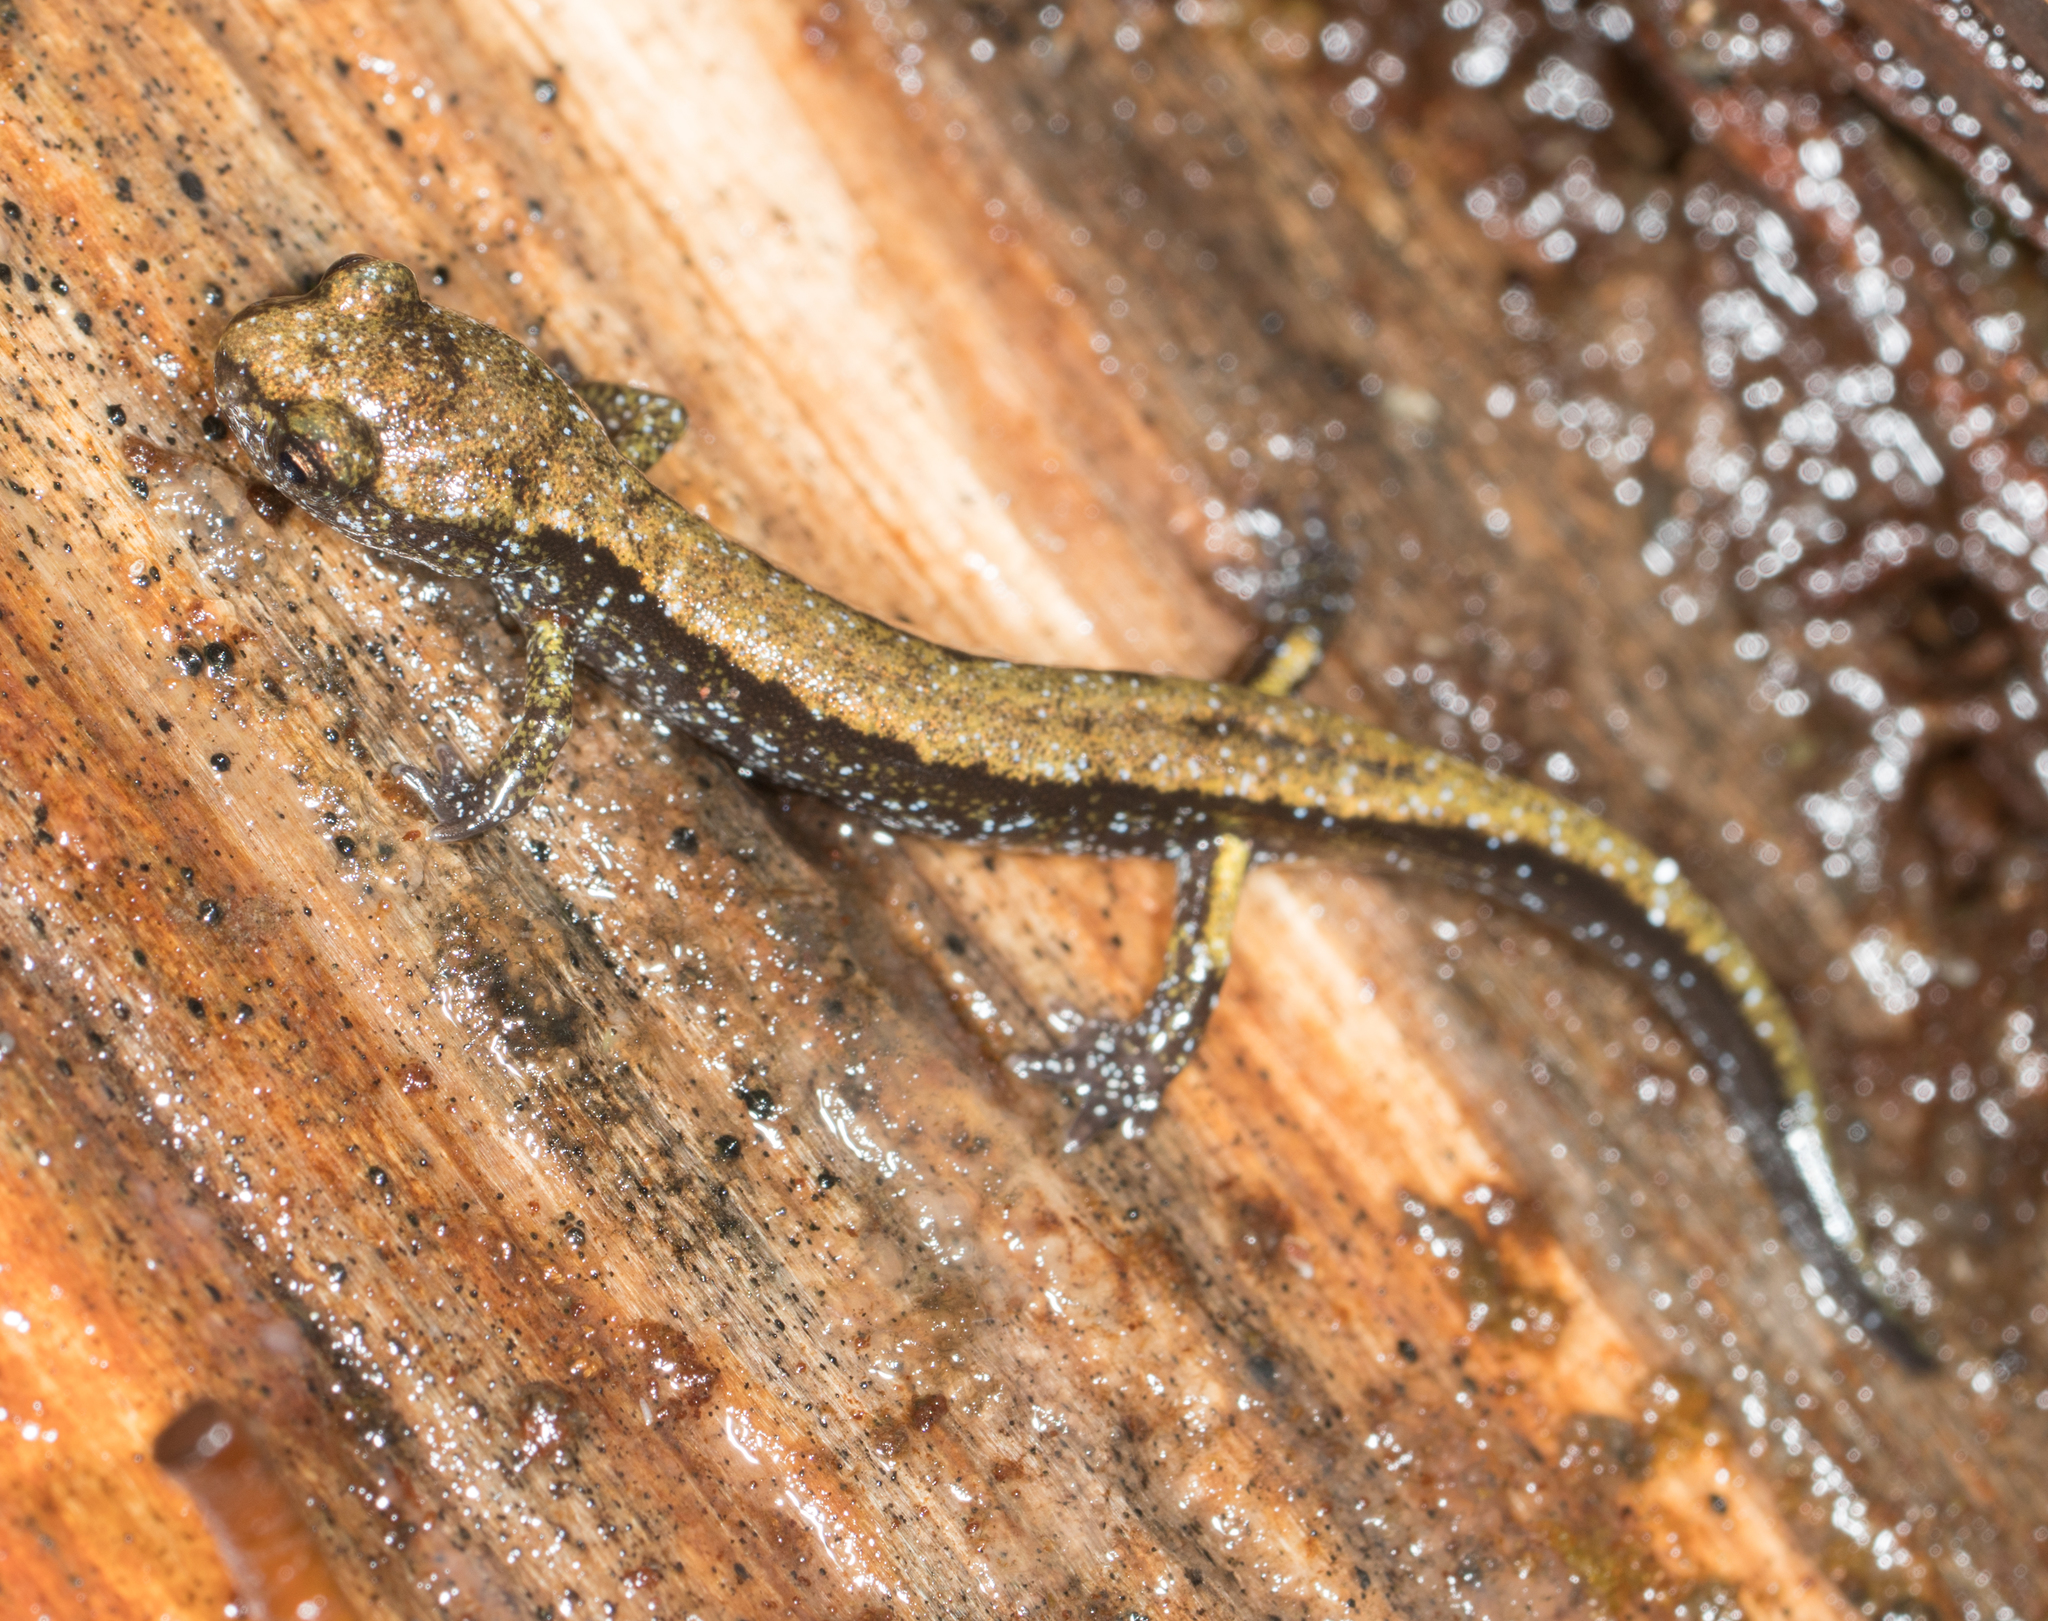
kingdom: Animalia
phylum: Chordata
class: Amphibia
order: Caudata
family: Plethodontidae
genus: Plethodon
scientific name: Plethodon dunni
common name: Dunn's salamander
